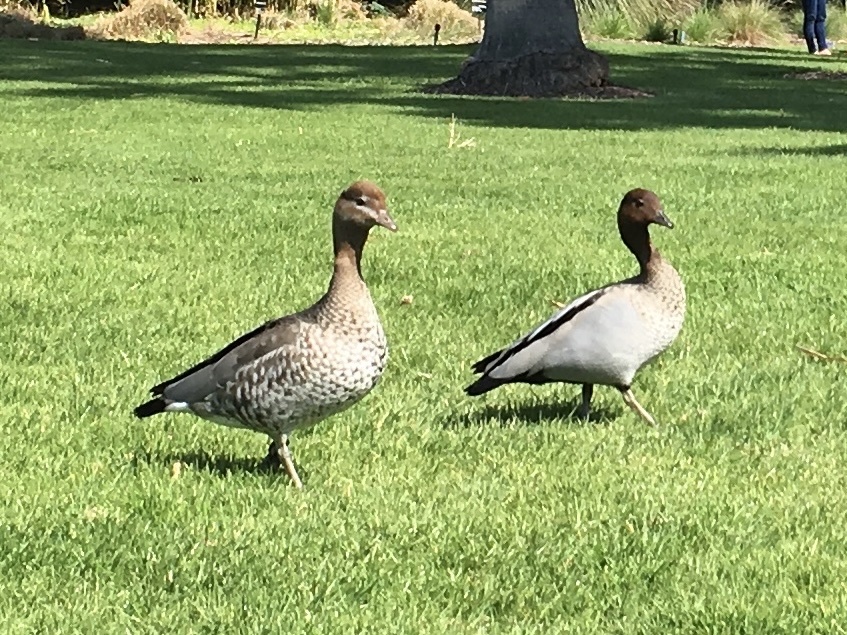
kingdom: Animalia
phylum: Chordata
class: Aves
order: Anseriformes
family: Anatidae
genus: Chenonetta
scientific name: Chenonetta jubata
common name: Maned duck
